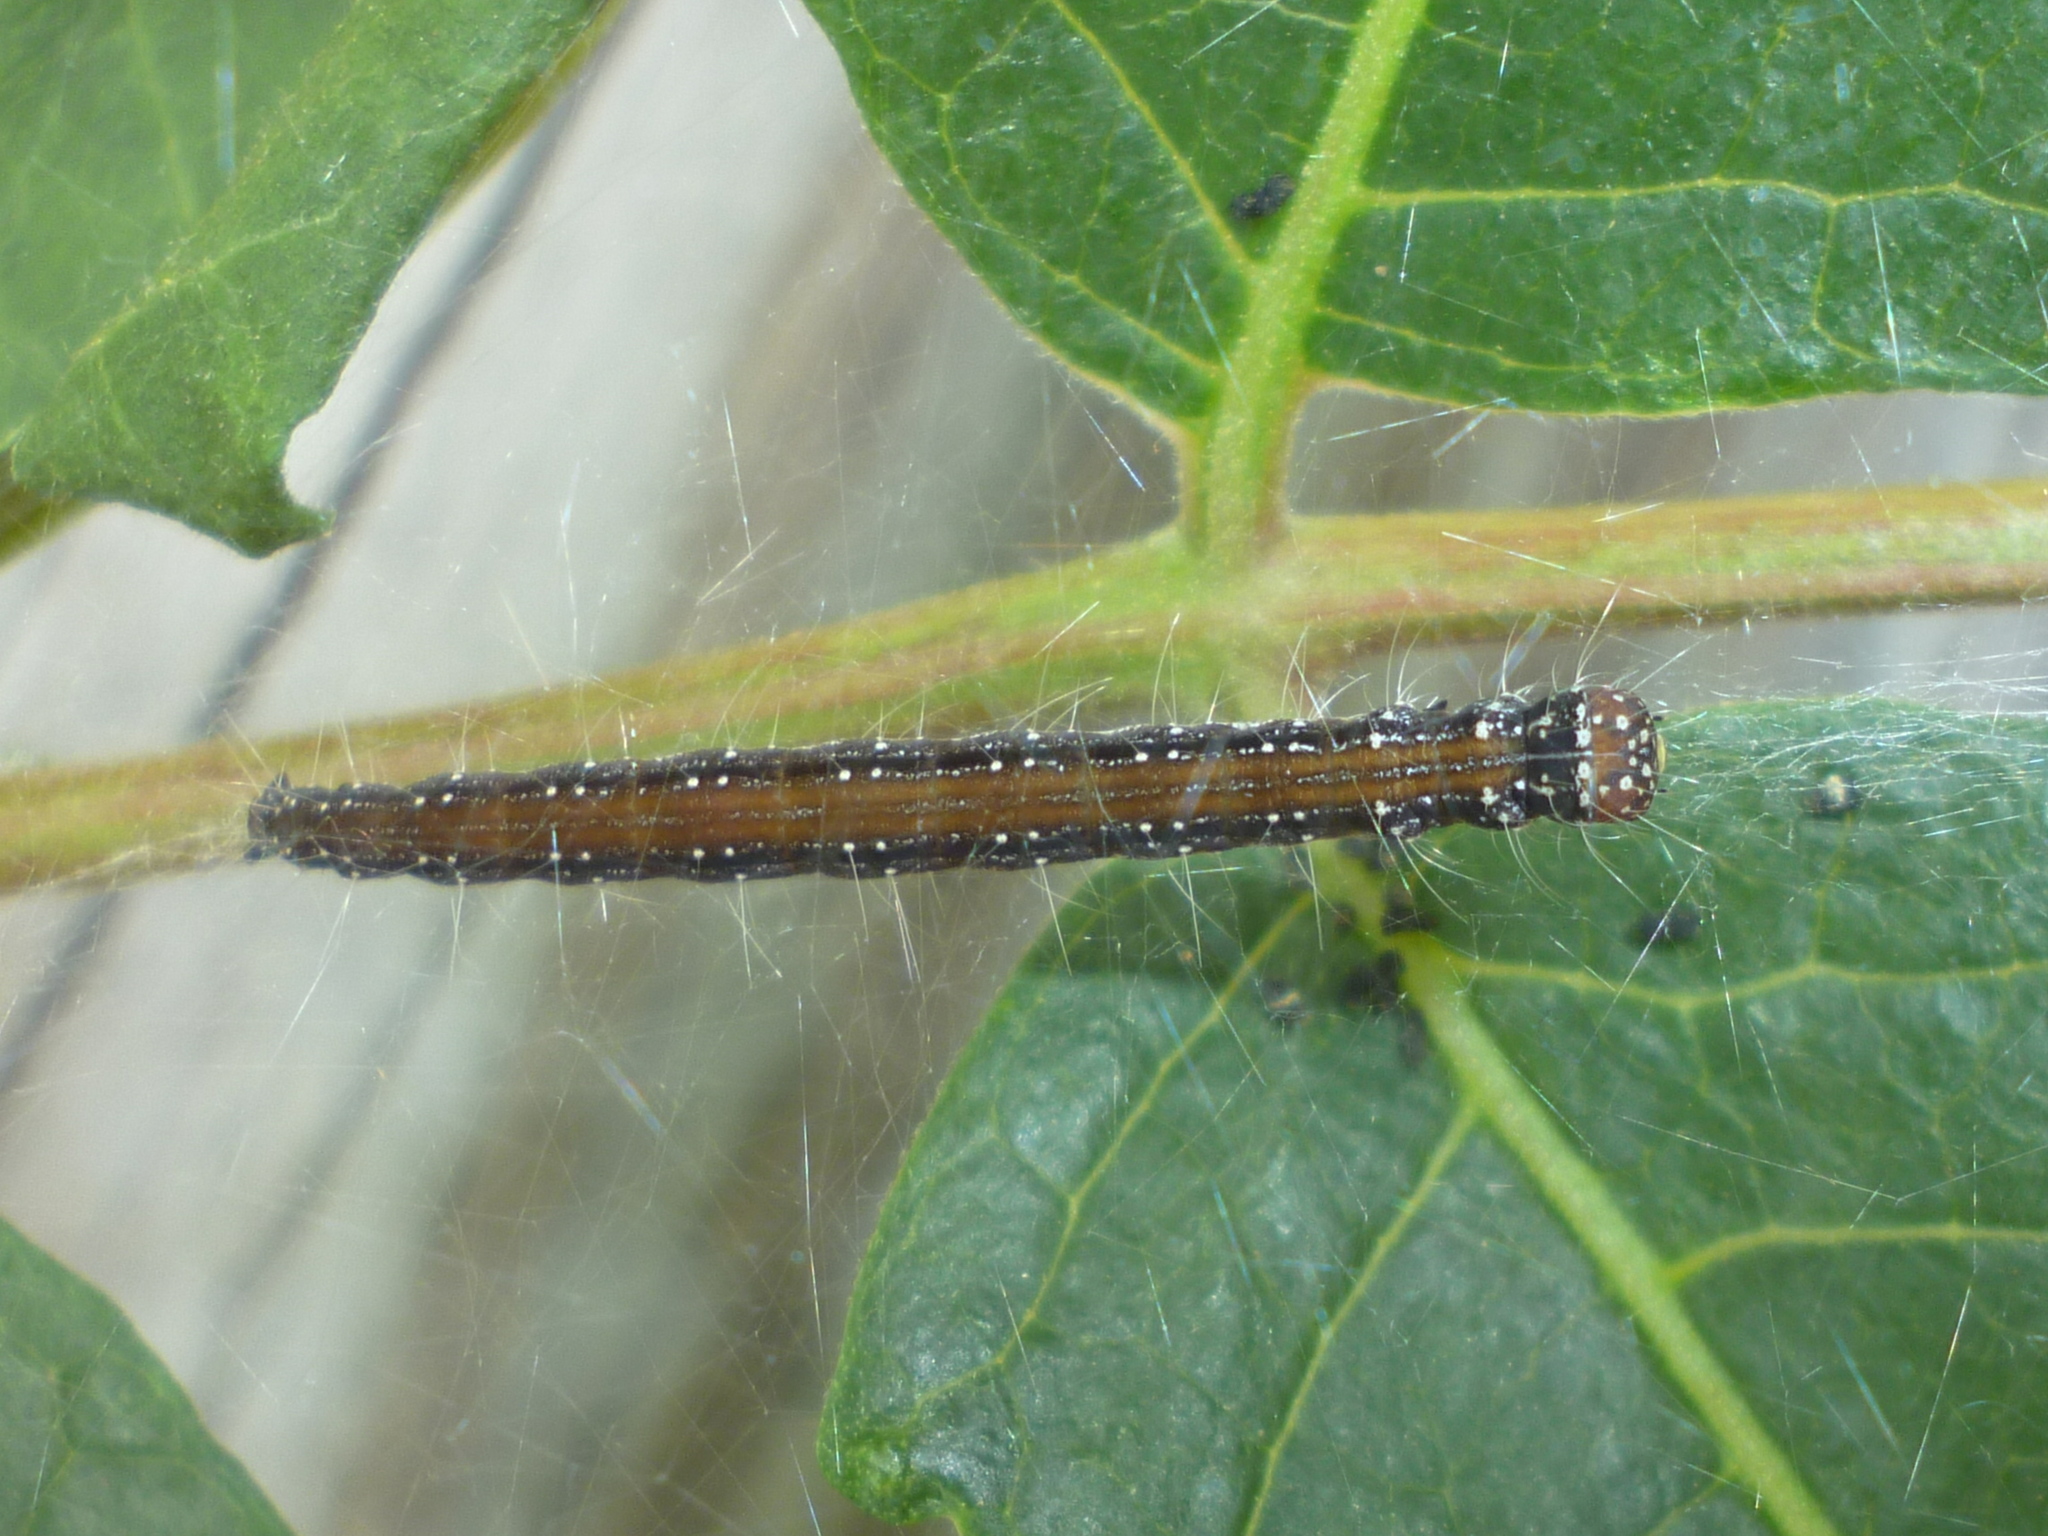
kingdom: Animalia
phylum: Arthropoda
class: Insecta
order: Lepidoptera
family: Attevidae
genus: Atteva
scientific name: Atteva punctella
